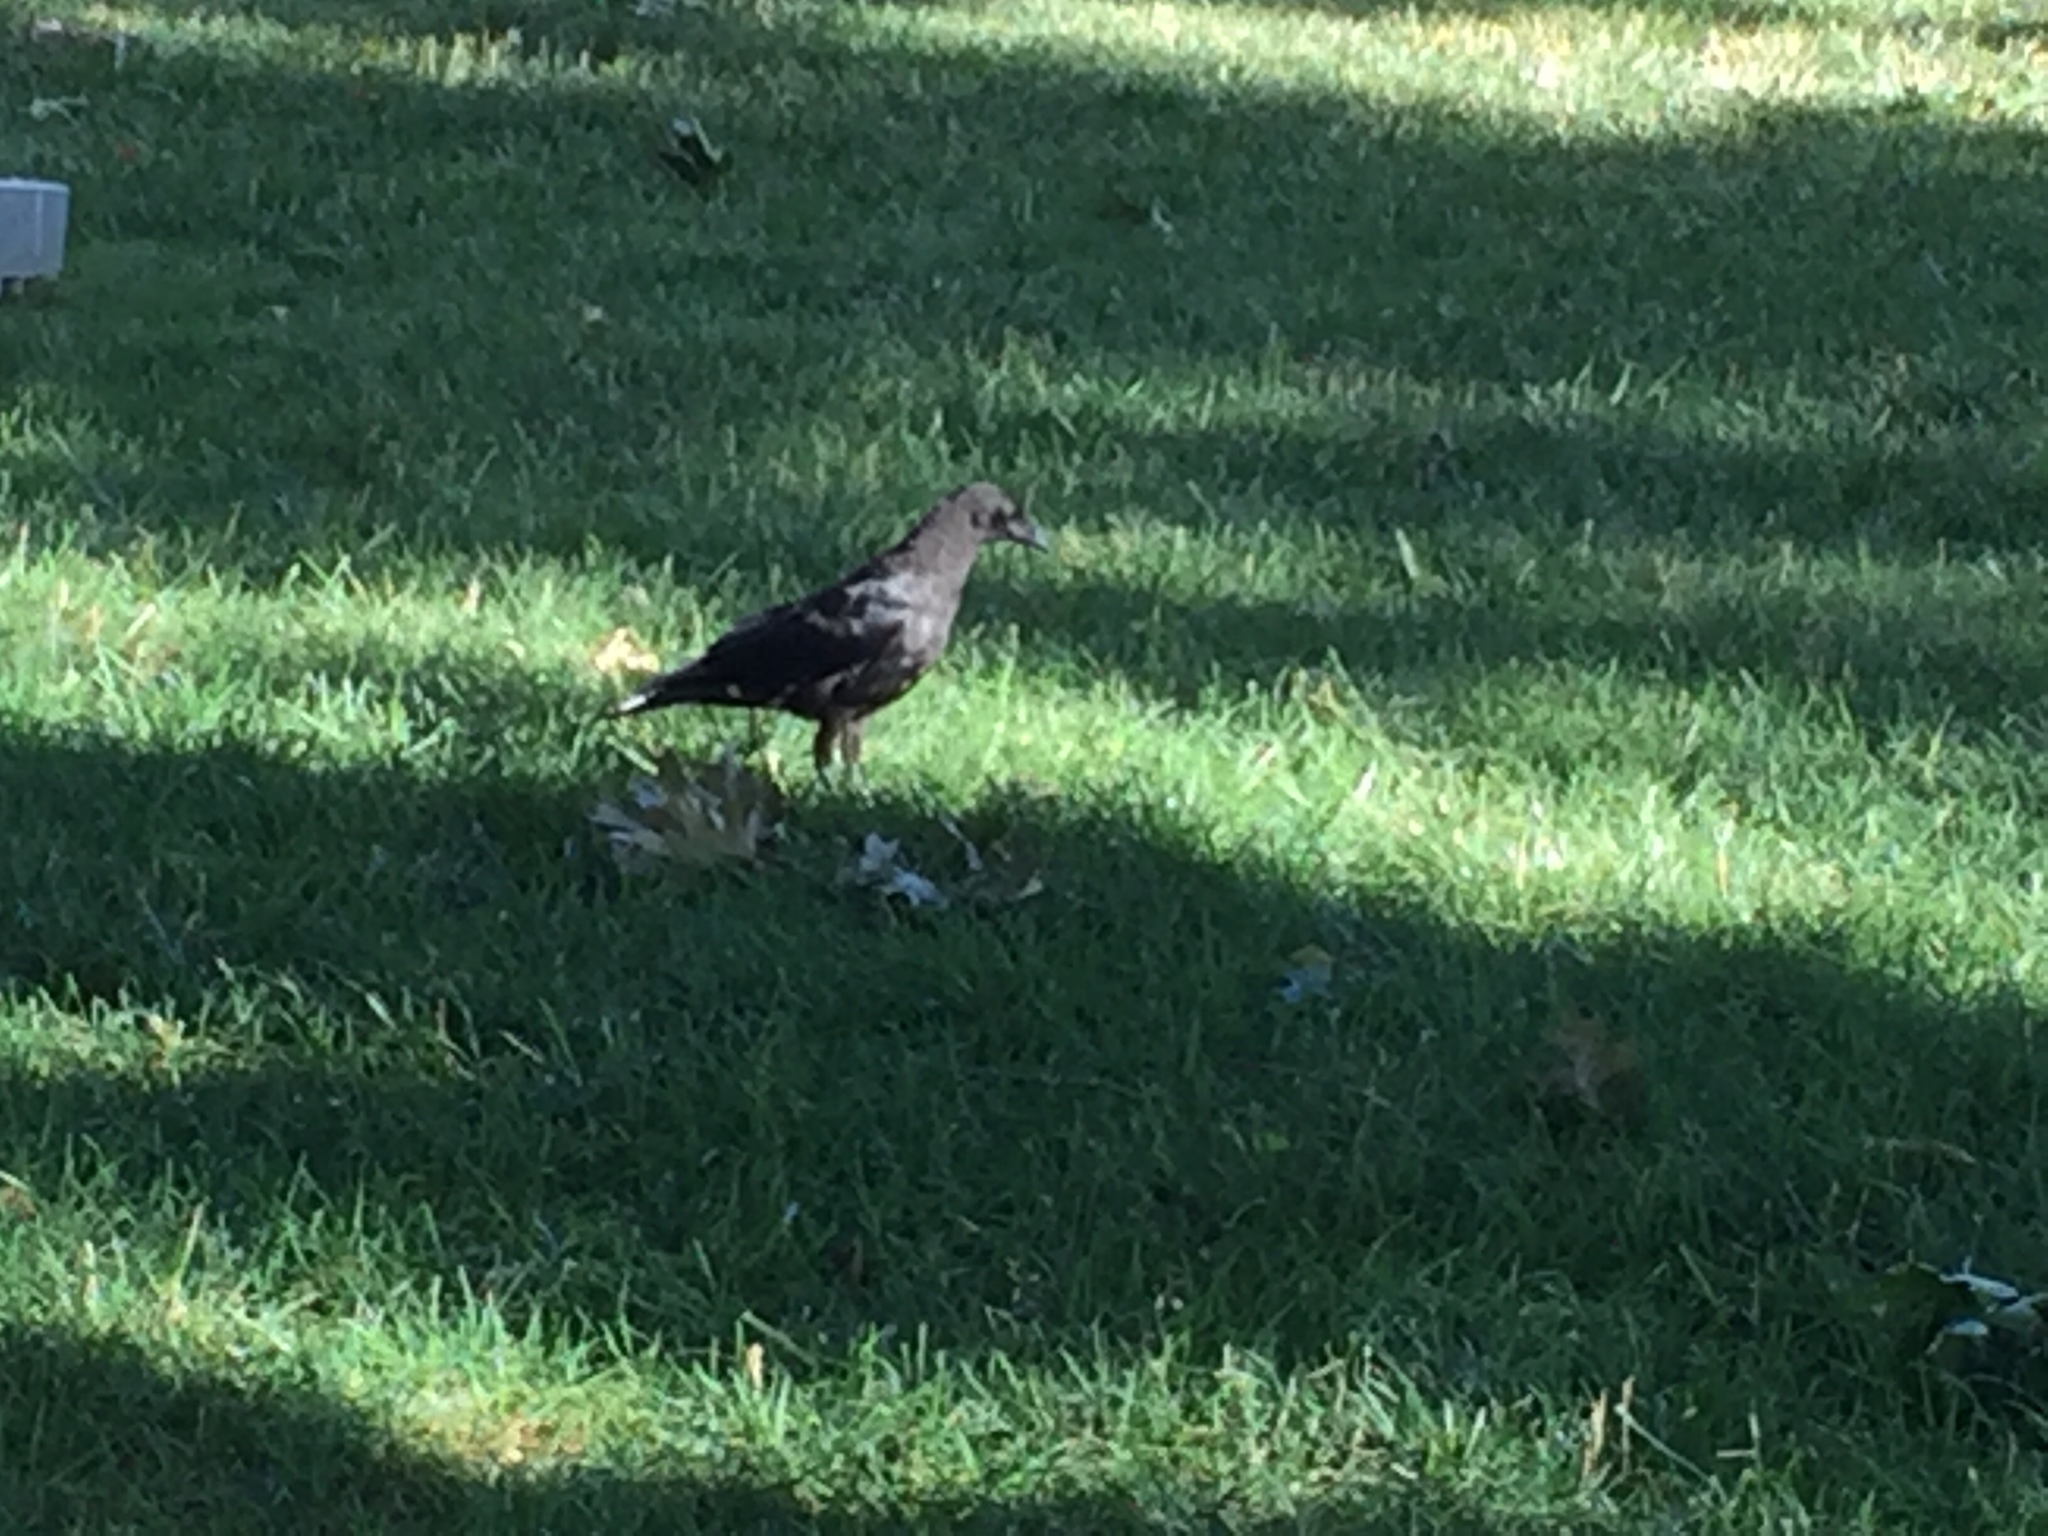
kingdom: Animalia
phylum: Chordata
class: Aves
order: Passeriformes
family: Corvidae
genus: Corvus
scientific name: Corvus
